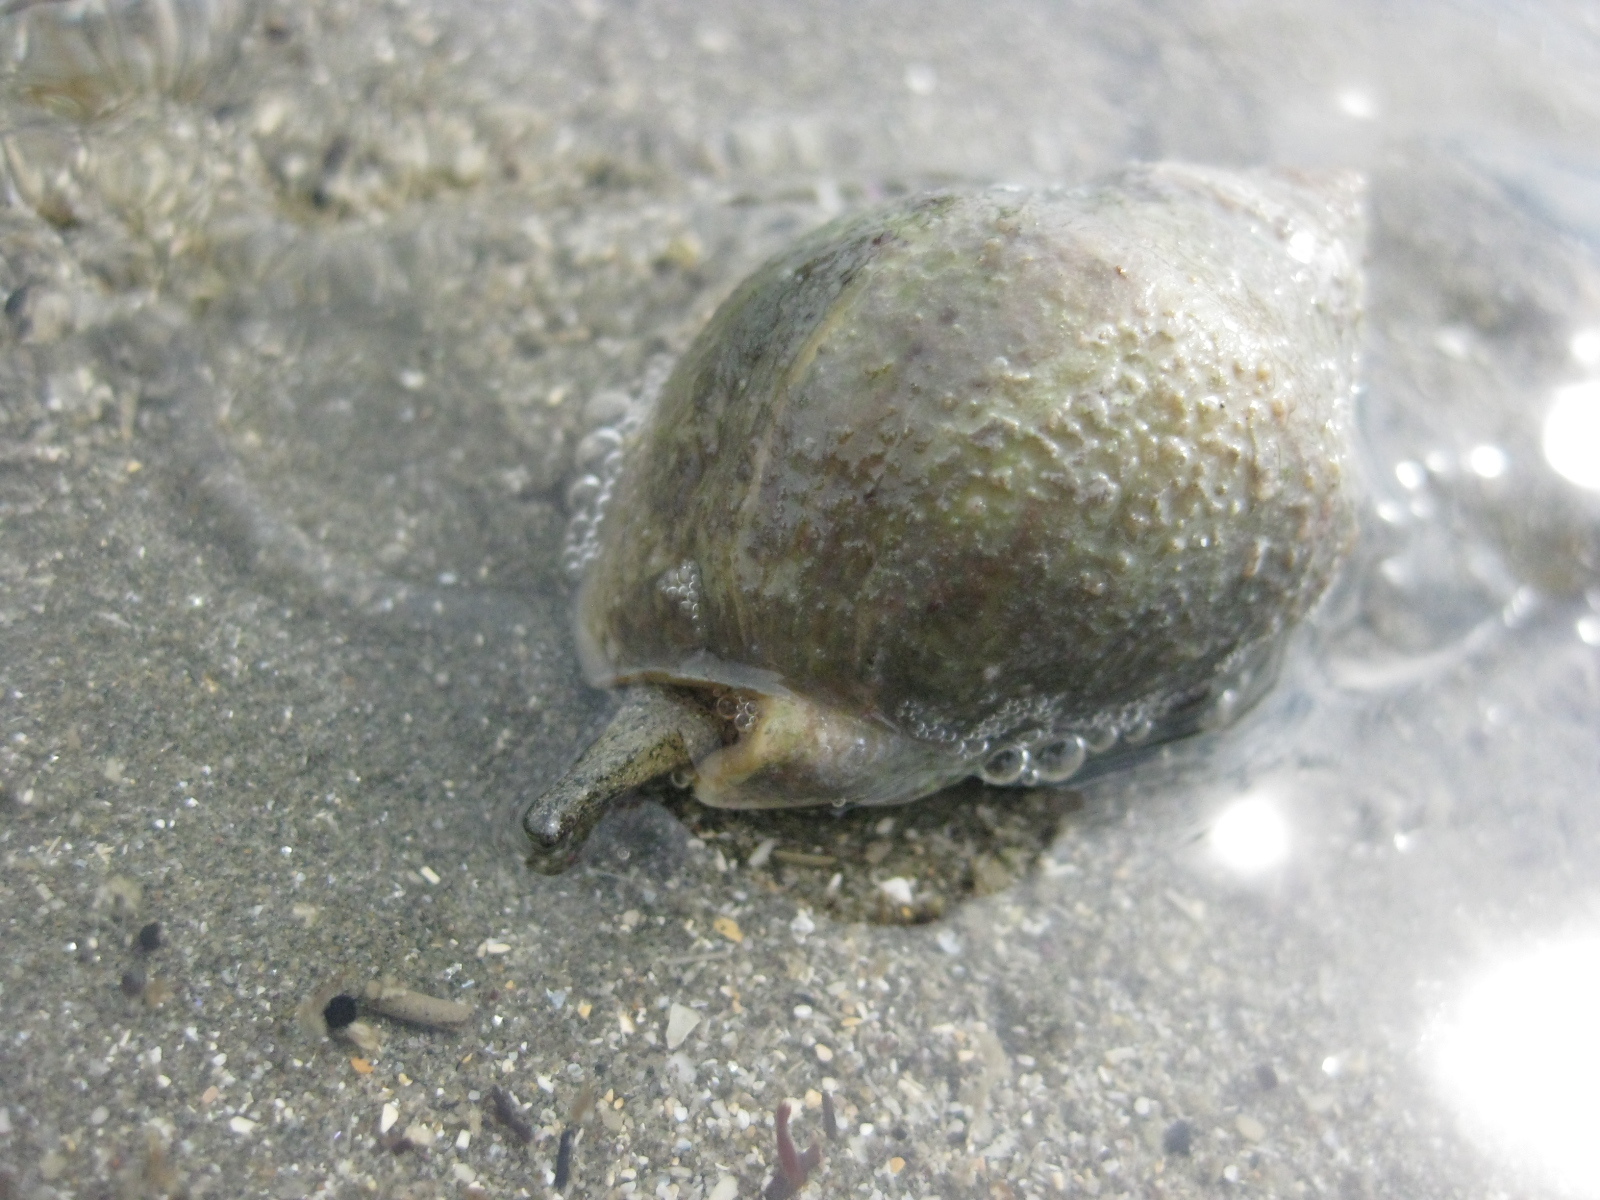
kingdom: Animalia
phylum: Mollusca
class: Gastropoda
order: Neogastropoda
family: Cominellidae
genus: Cominella
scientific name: Cominella adspersa
